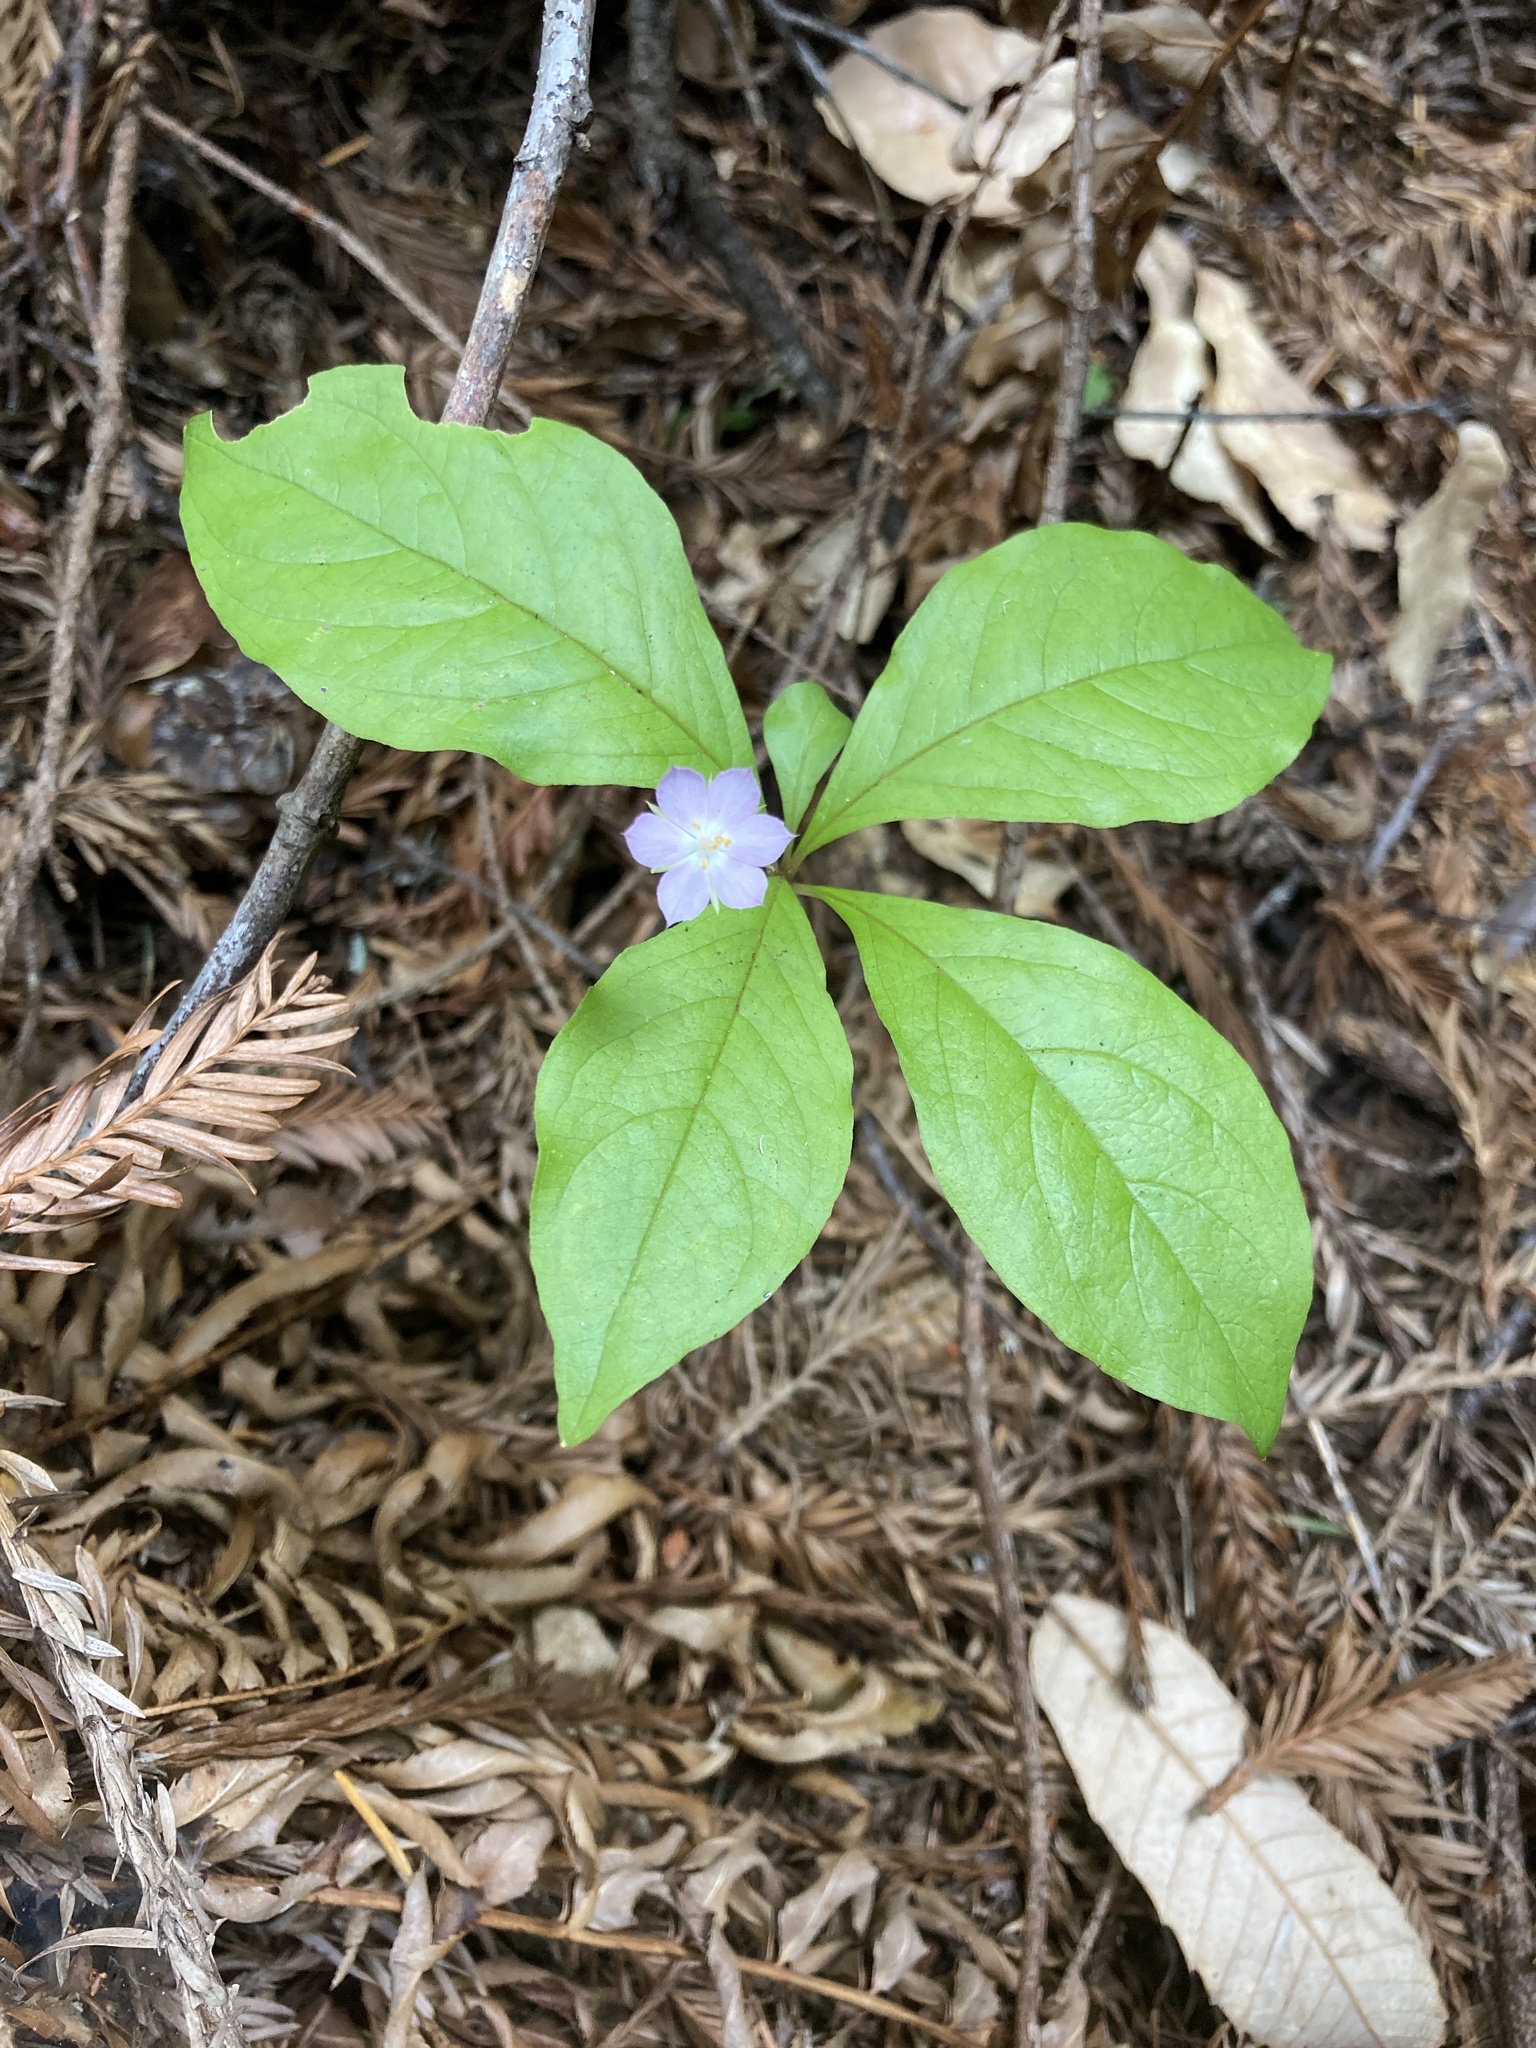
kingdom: Plantae
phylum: Tracheophyta
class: Magnoliopsida
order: Ericales
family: Primulaceae
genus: Lysimachia
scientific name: Lysimachia latifolia
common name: Pacific starflower
